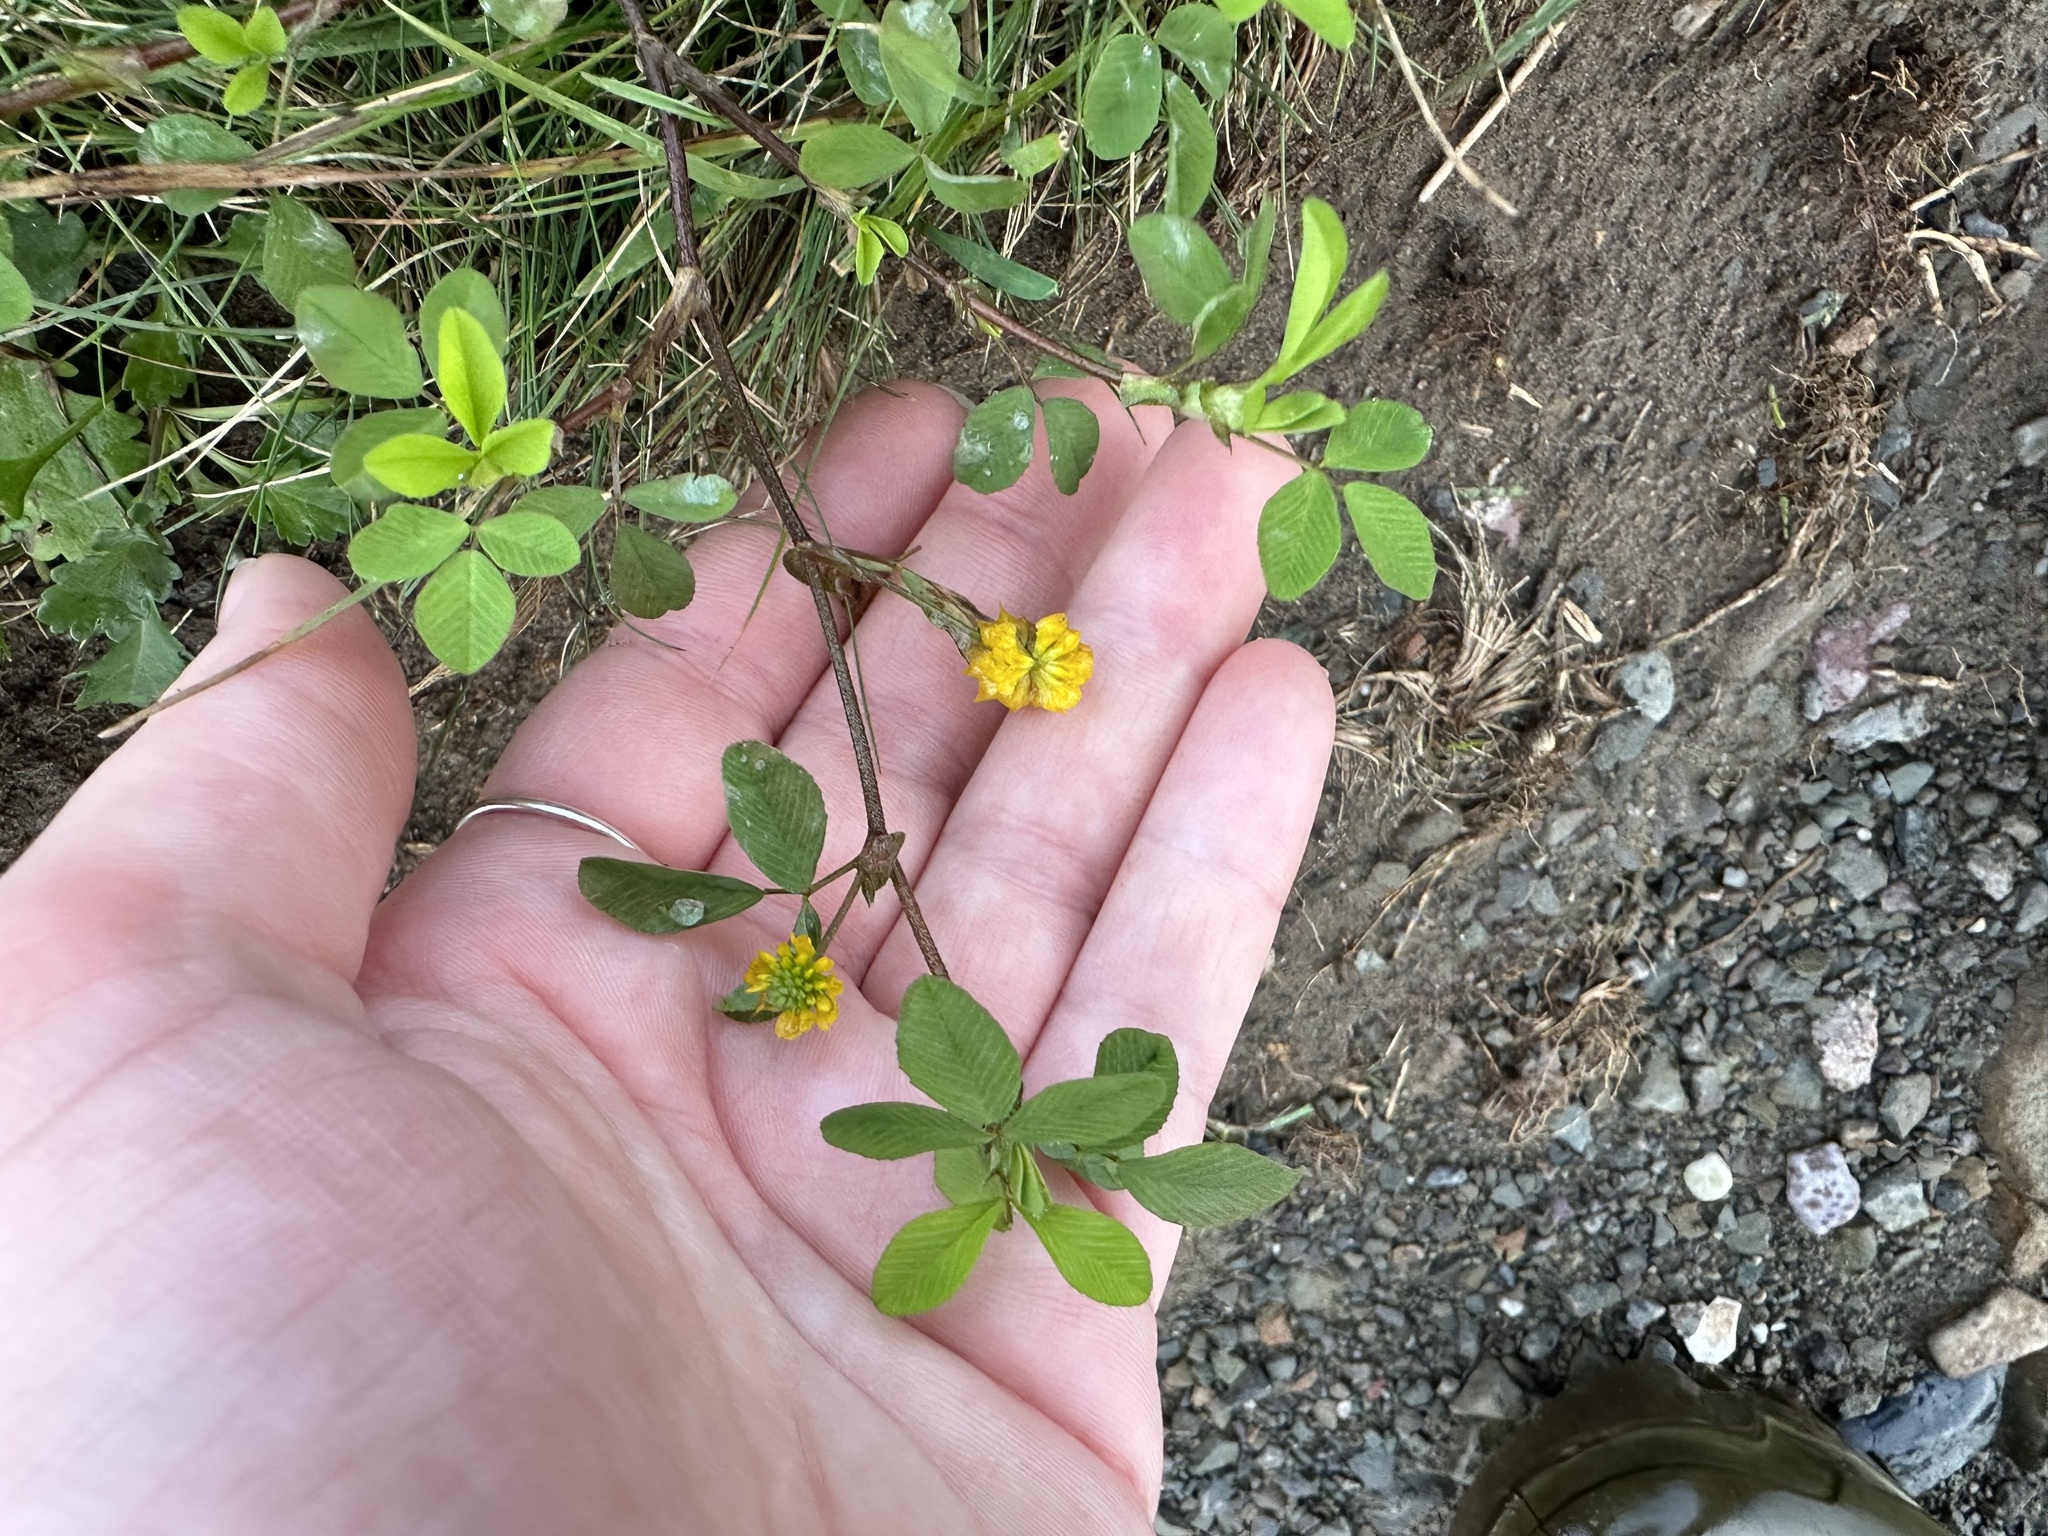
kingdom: Plantae
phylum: Tracheophyta
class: Magnoliopsida
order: Fabales
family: Fabaceae
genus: Trifolium
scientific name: Trifolium campestre
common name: Field clover
